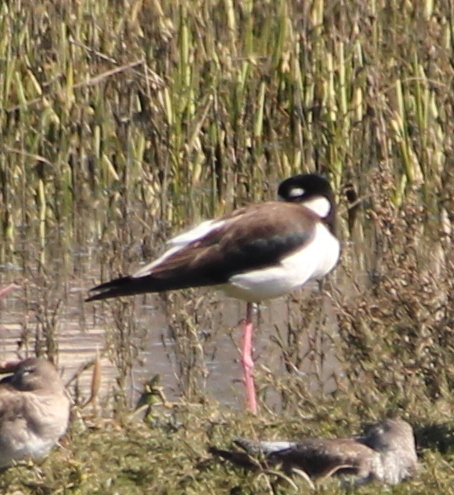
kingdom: Animalia
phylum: Chordata
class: Aves
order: Charadriiformes
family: Recurvirostridae
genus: Himantopus
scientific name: Himantopus mexicanus
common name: Black-necked stilt
